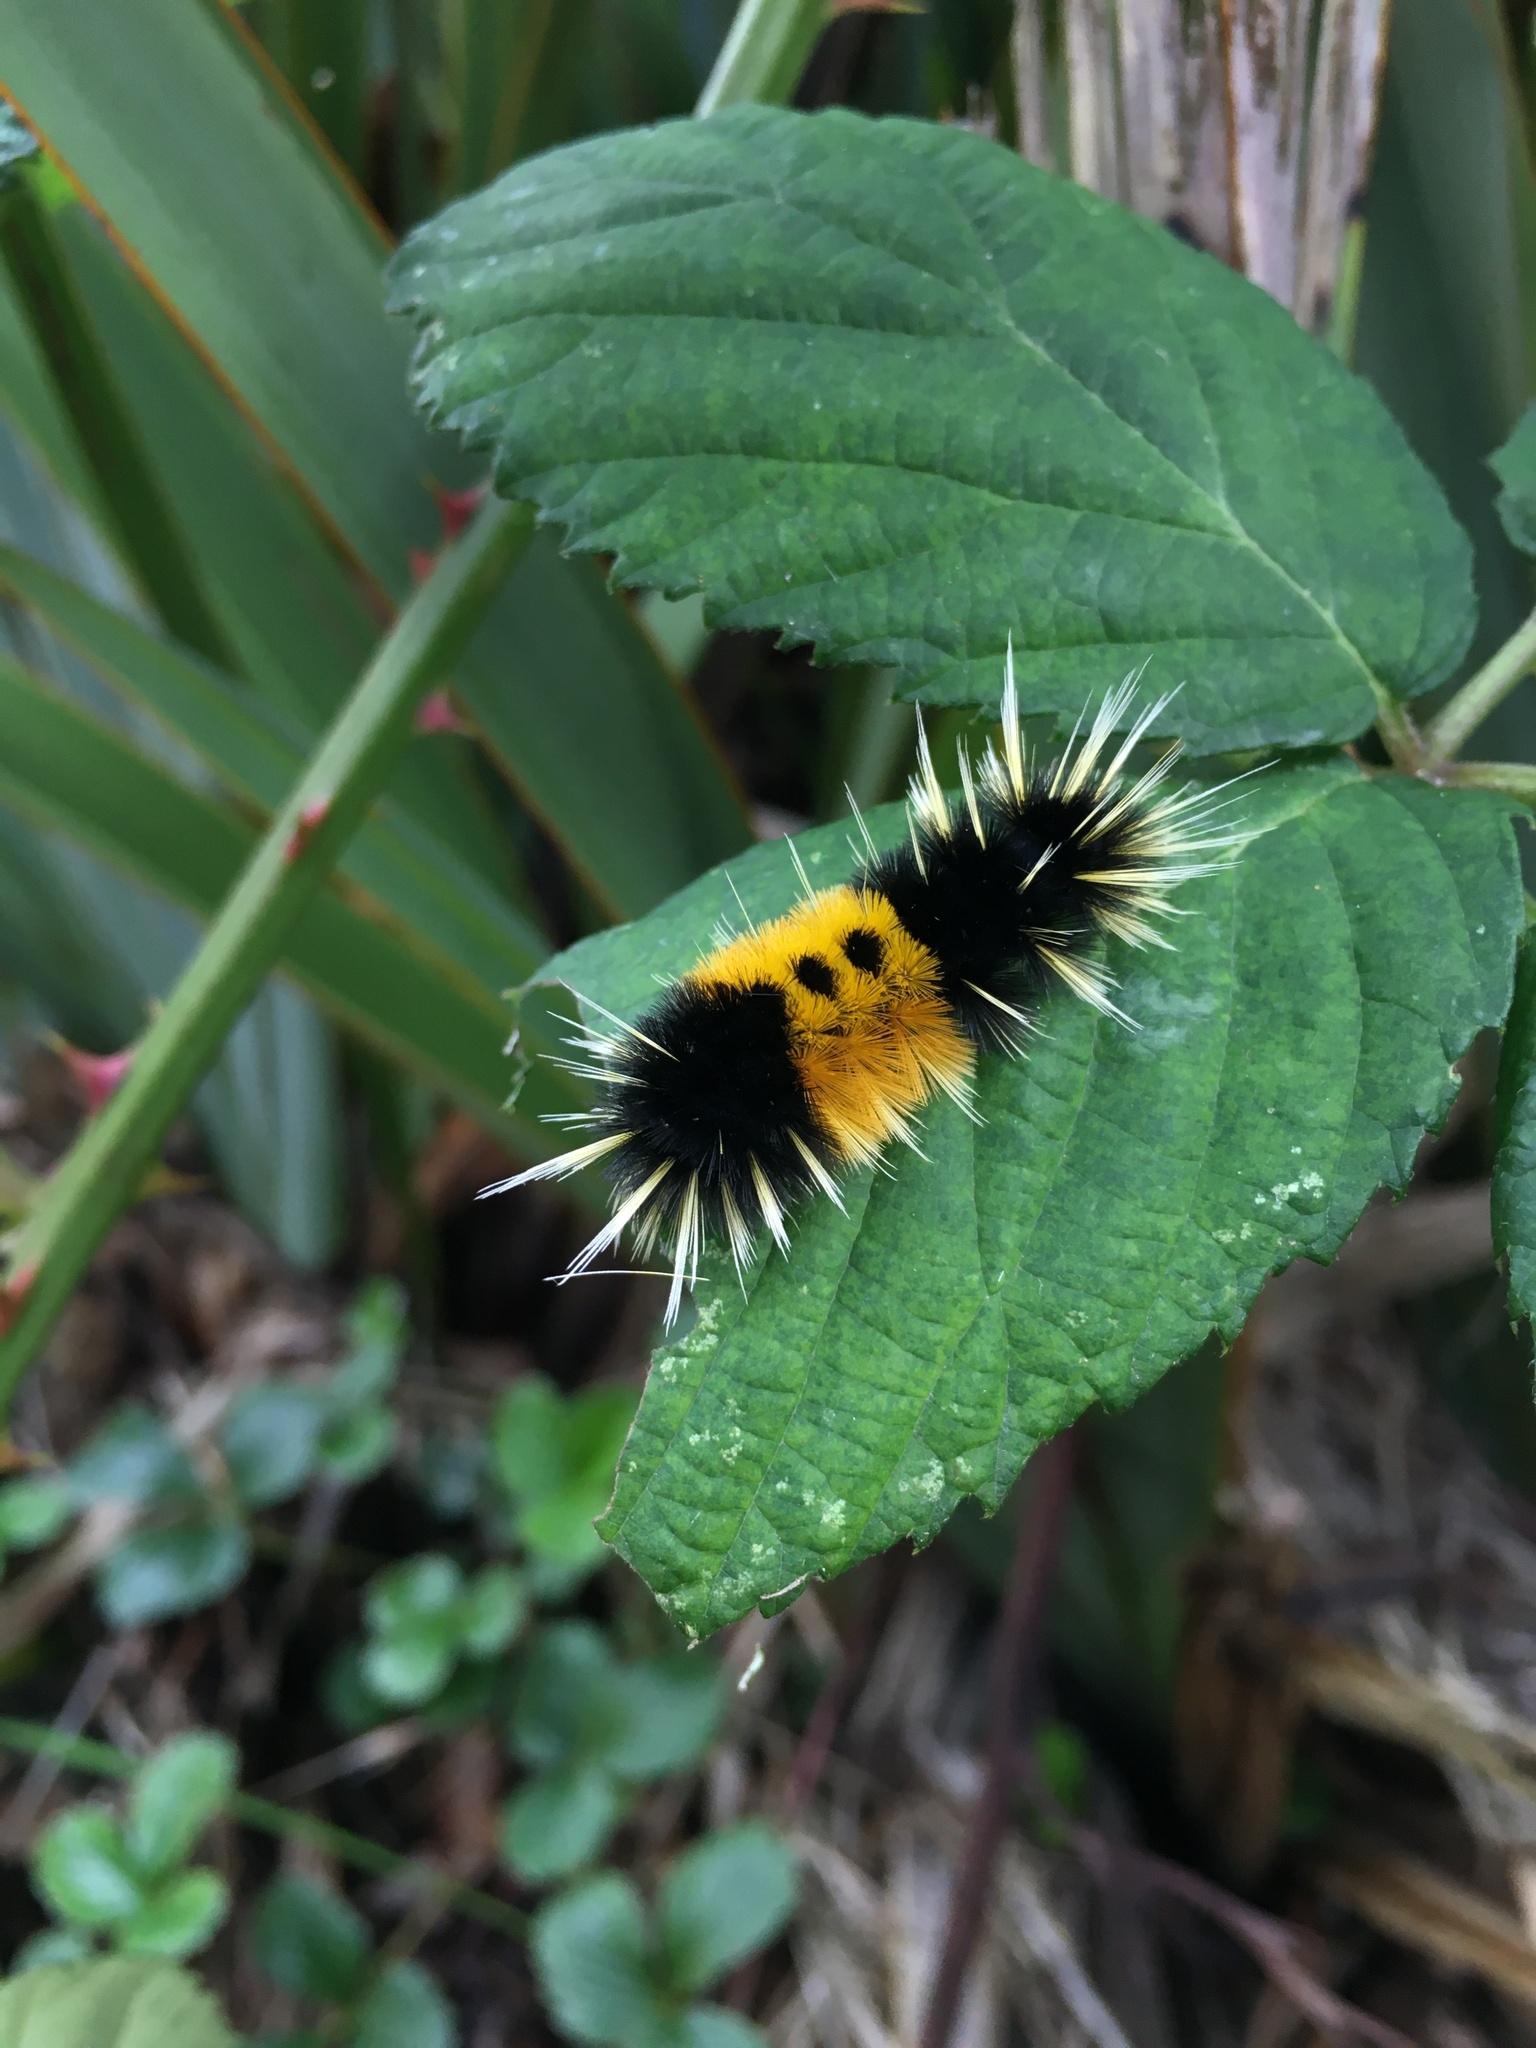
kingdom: Animalia
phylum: Arthropoda
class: Insecta
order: Lepidoptera
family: Erebidae
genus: Lophocampa
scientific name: Lophocampa maculata
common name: Spotted tussock moth
